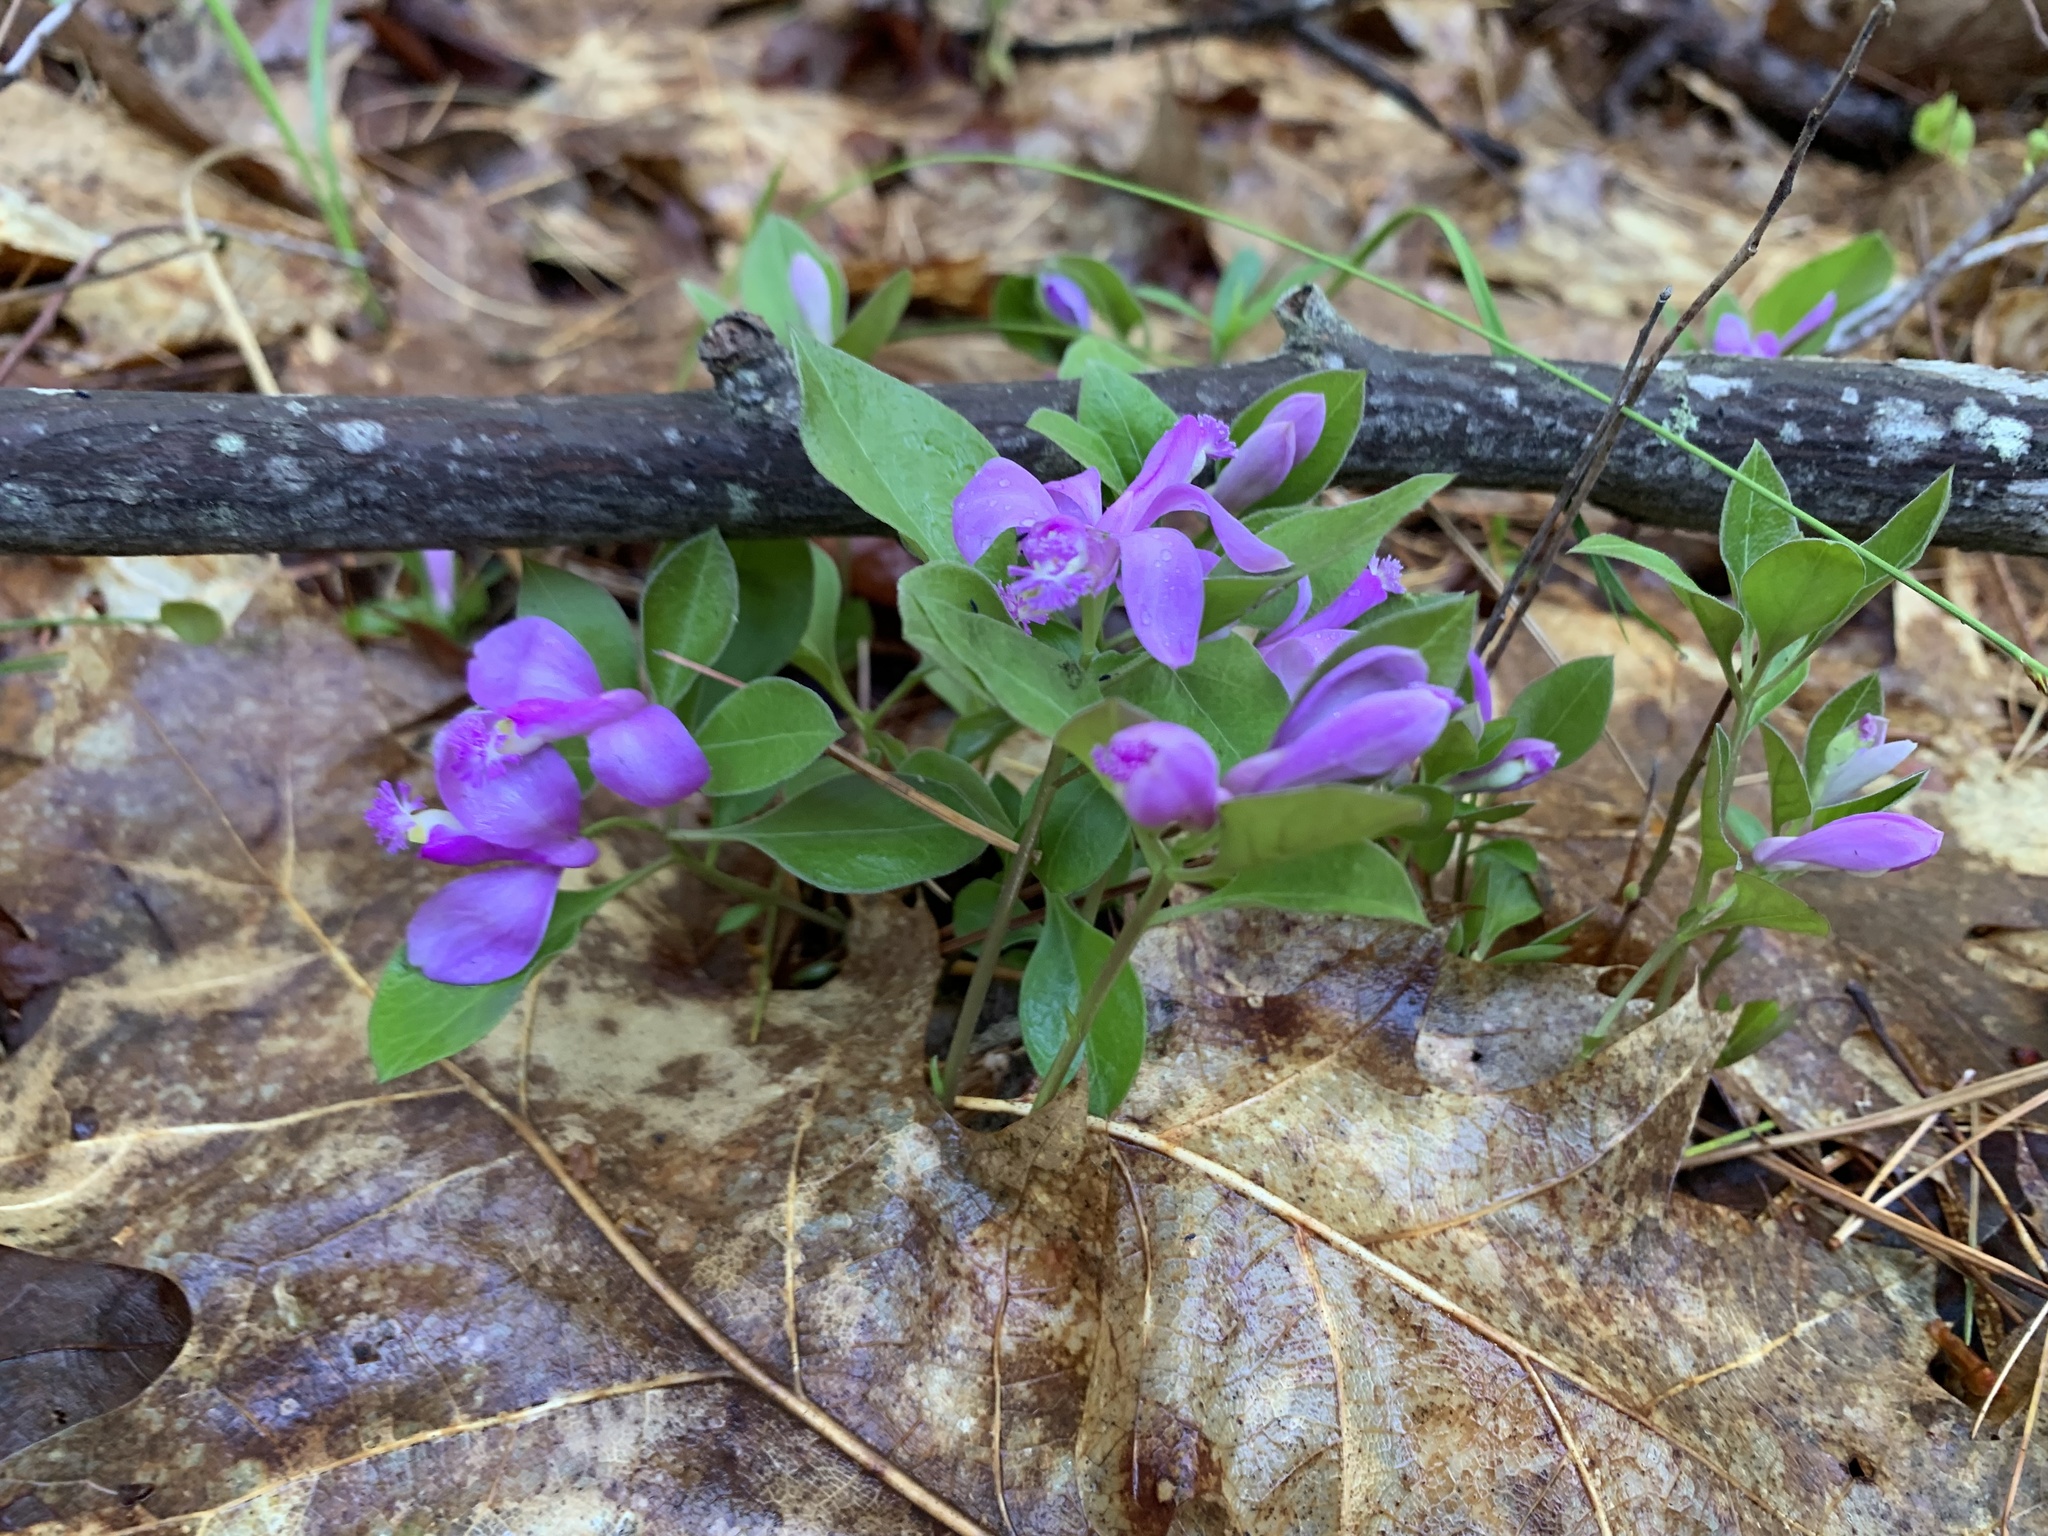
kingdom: Plantae
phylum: Tracheophyta
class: Magnoliopsida
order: Fabales
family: Polygalaceae
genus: Polygaloides
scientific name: Polygaloides paucifolia
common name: Bird-on-the-wing
